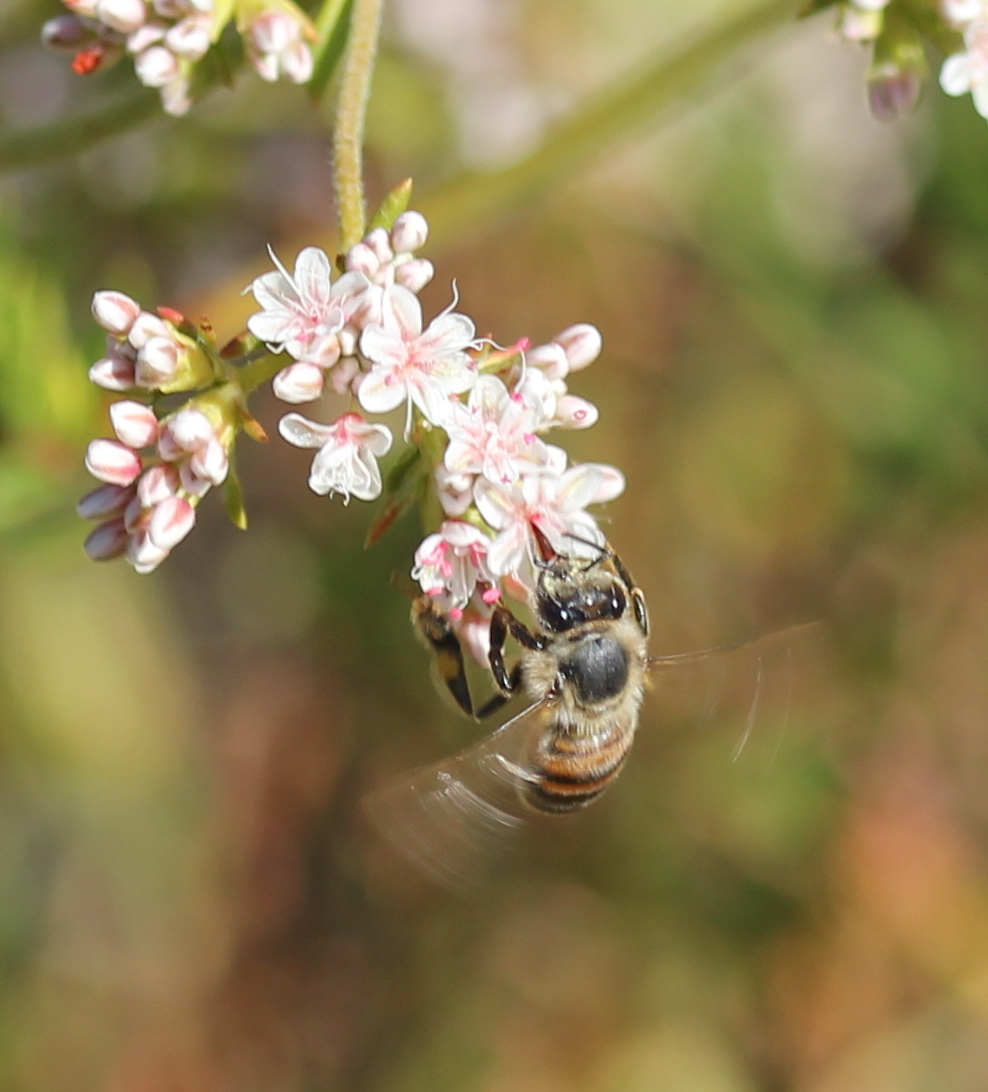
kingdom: Animalia
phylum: Arthropoda
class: Insecta
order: Hymenoptera
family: Apidae
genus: Apis
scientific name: Apis mellifera
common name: Honey bee
